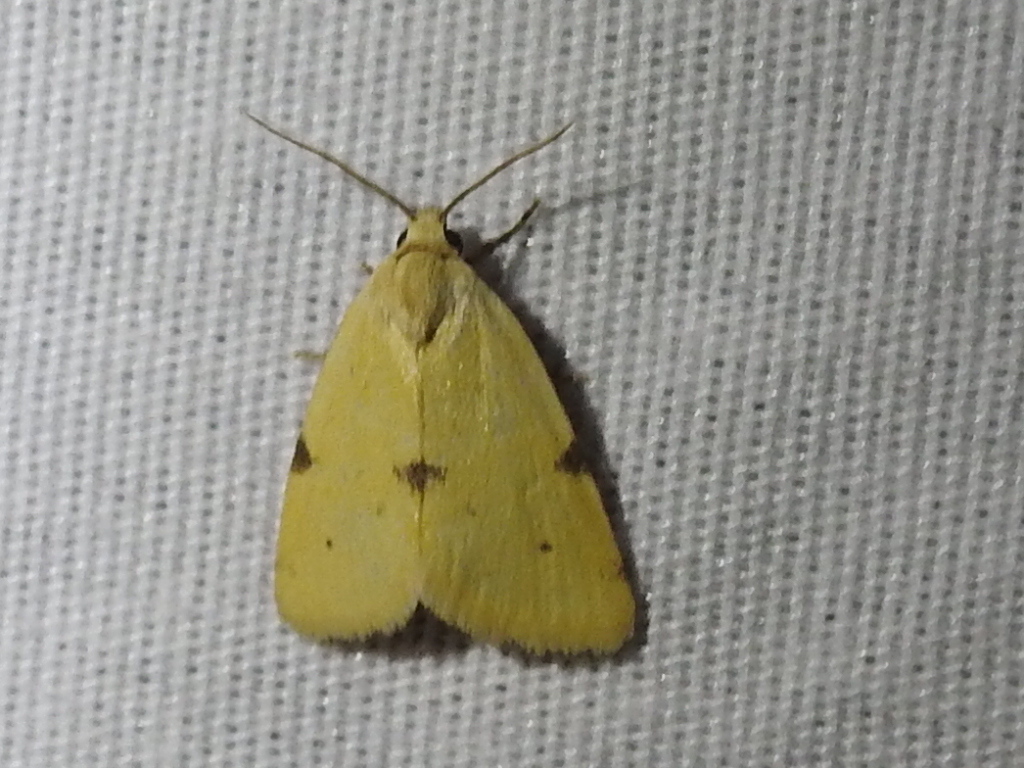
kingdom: Animalia
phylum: Arthropoda
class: Insecta
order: Lepidoptera
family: Noctuidae
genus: Azenia
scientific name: Azenia edentata
